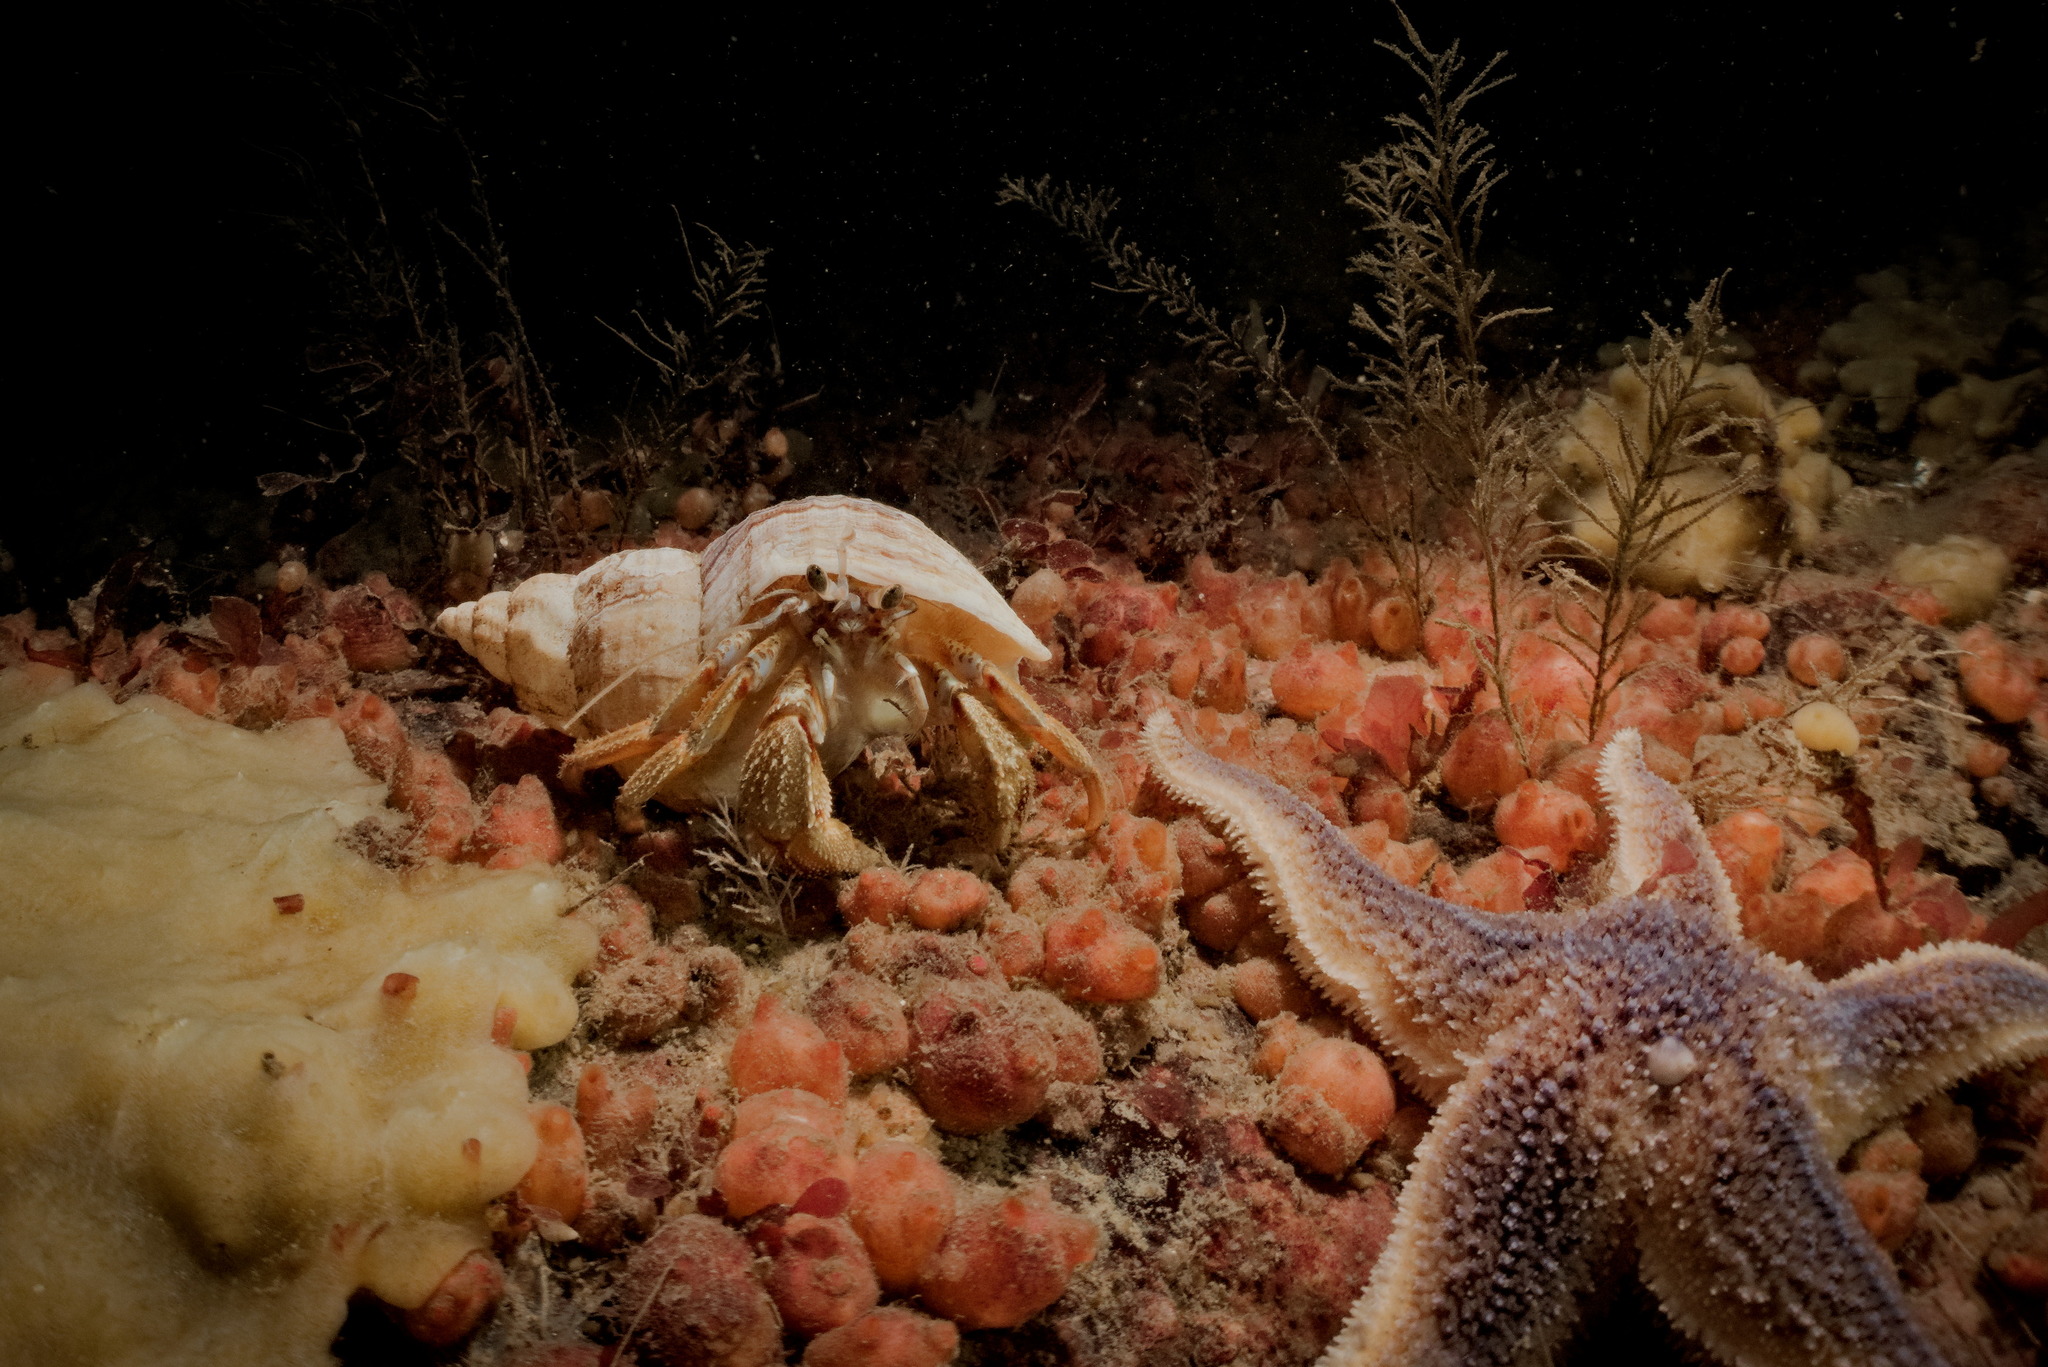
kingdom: Animalia
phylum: Arthropoda
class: Malacostraca
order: Decapoda
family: Paguridae
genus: Pagurus
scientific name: Pagurus bernhardus
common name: Hermit crab
